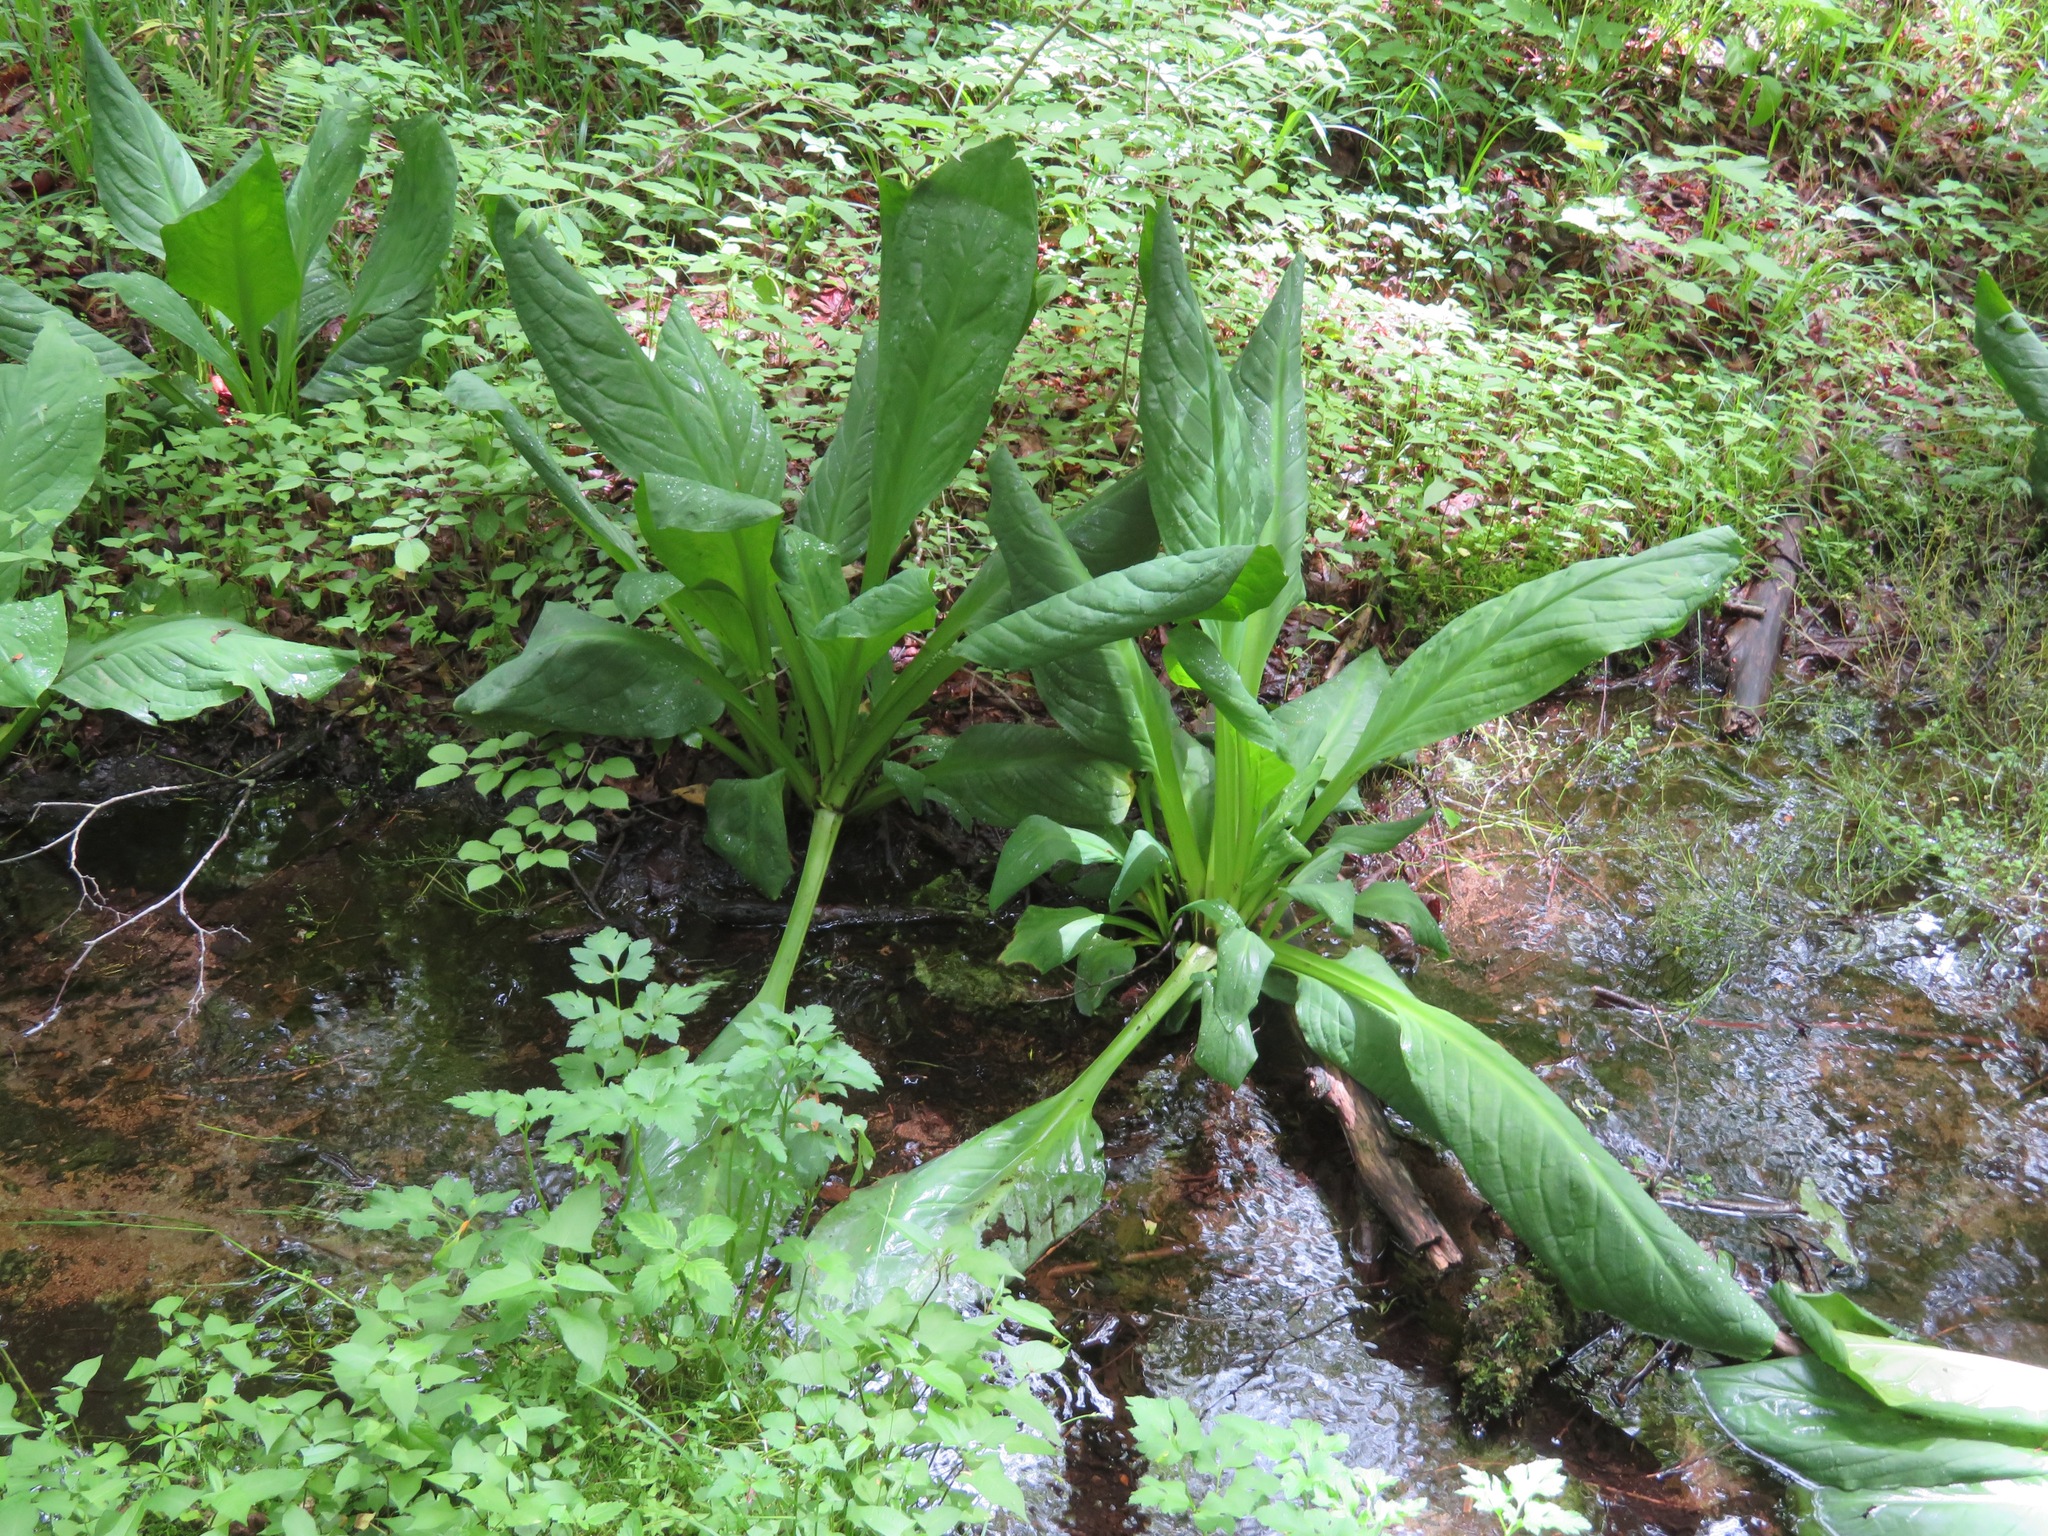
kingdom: Plantae
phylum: Tracheophyta
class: Liliopsida
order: Alismatales
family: Araceae
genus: Lysichiton
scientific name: Lysichiton camtschatcensis
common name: Asian skunk-cabbage
